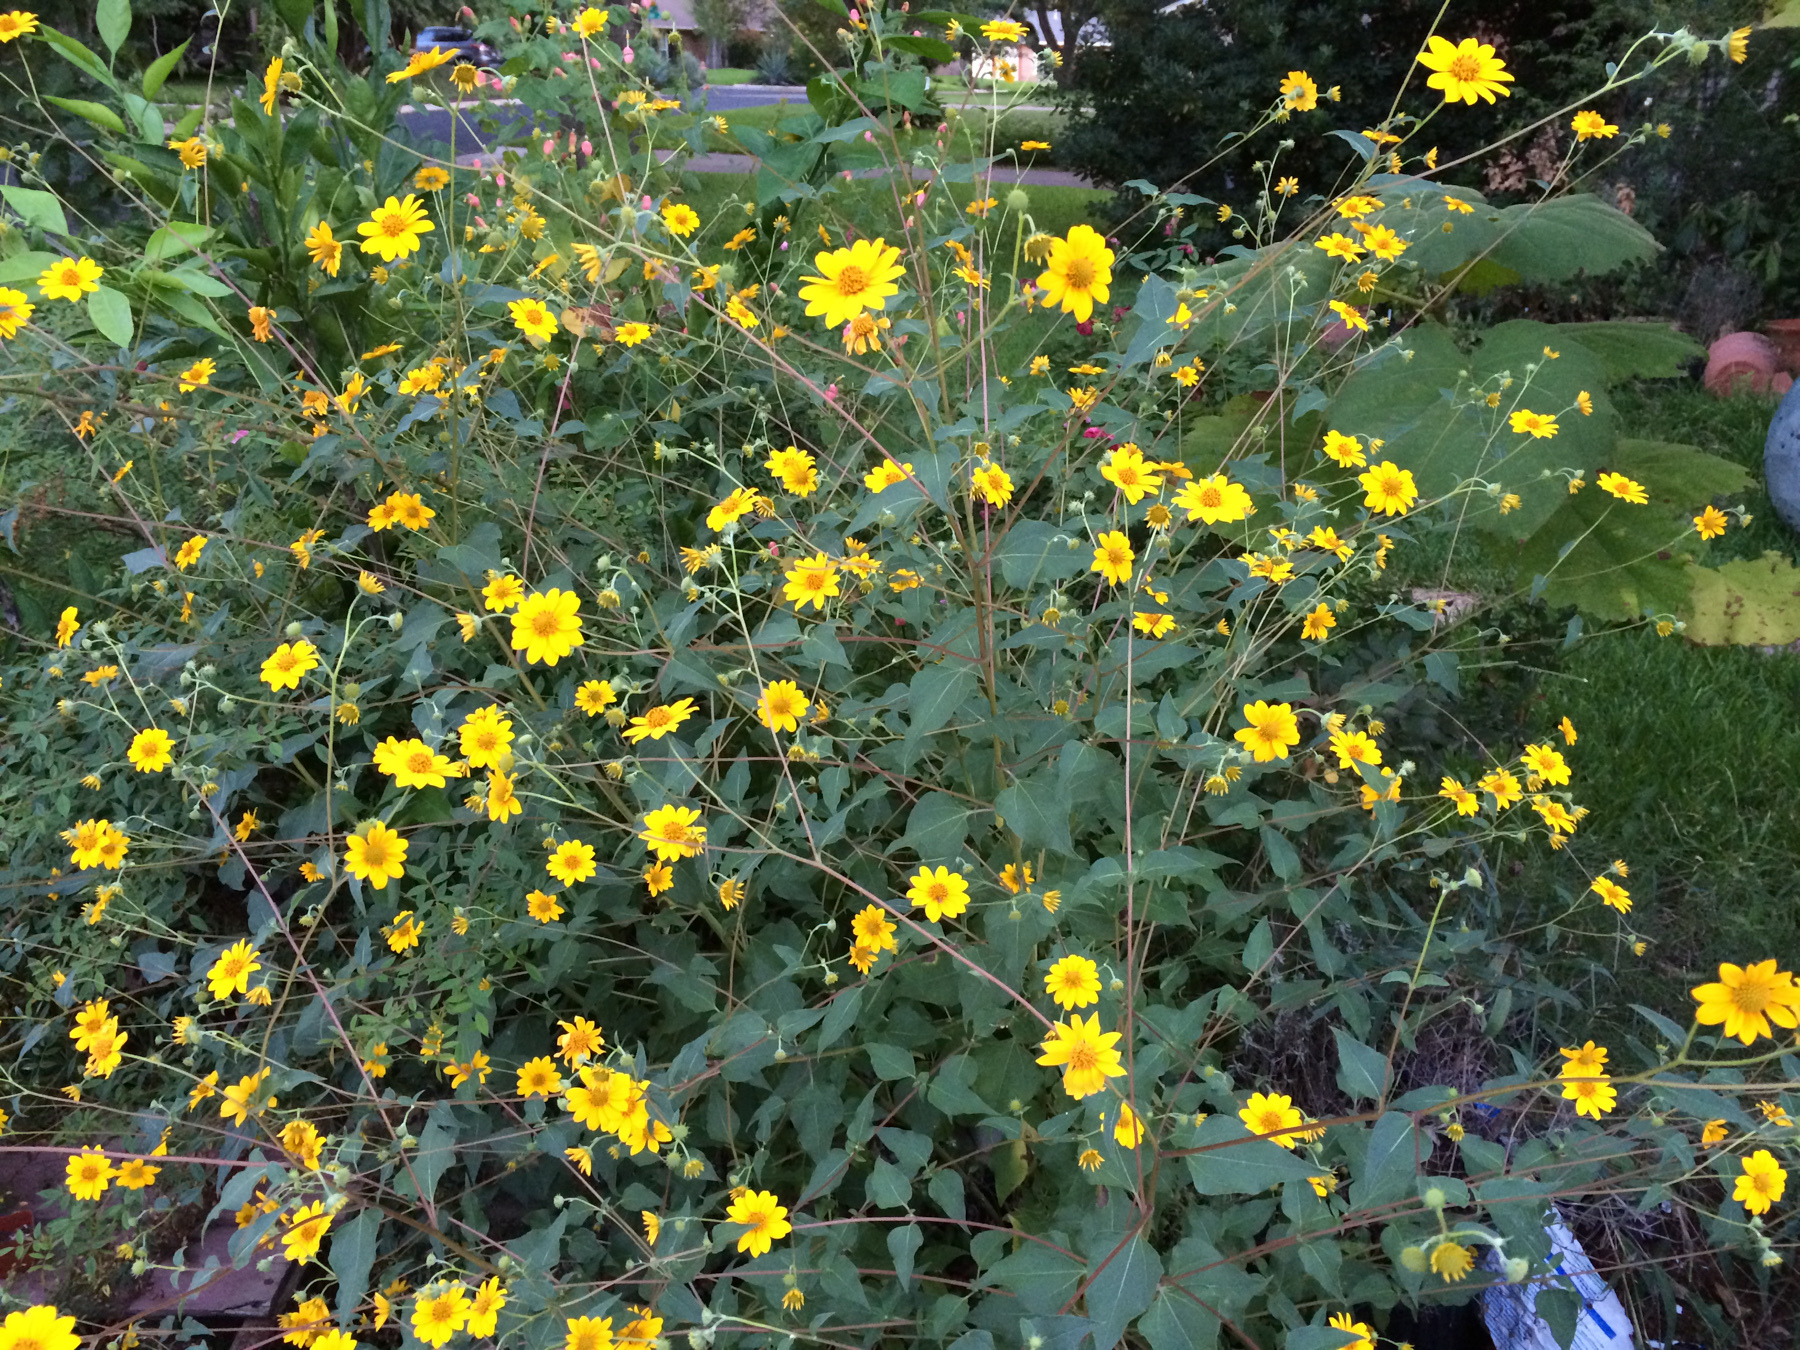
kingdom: Plantae
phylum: Tracheophyta
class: Magnoliopsida
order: Asterales
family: Asteraceae
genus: Viguiera
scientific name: Viguiera dentata
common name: Toothleaf
